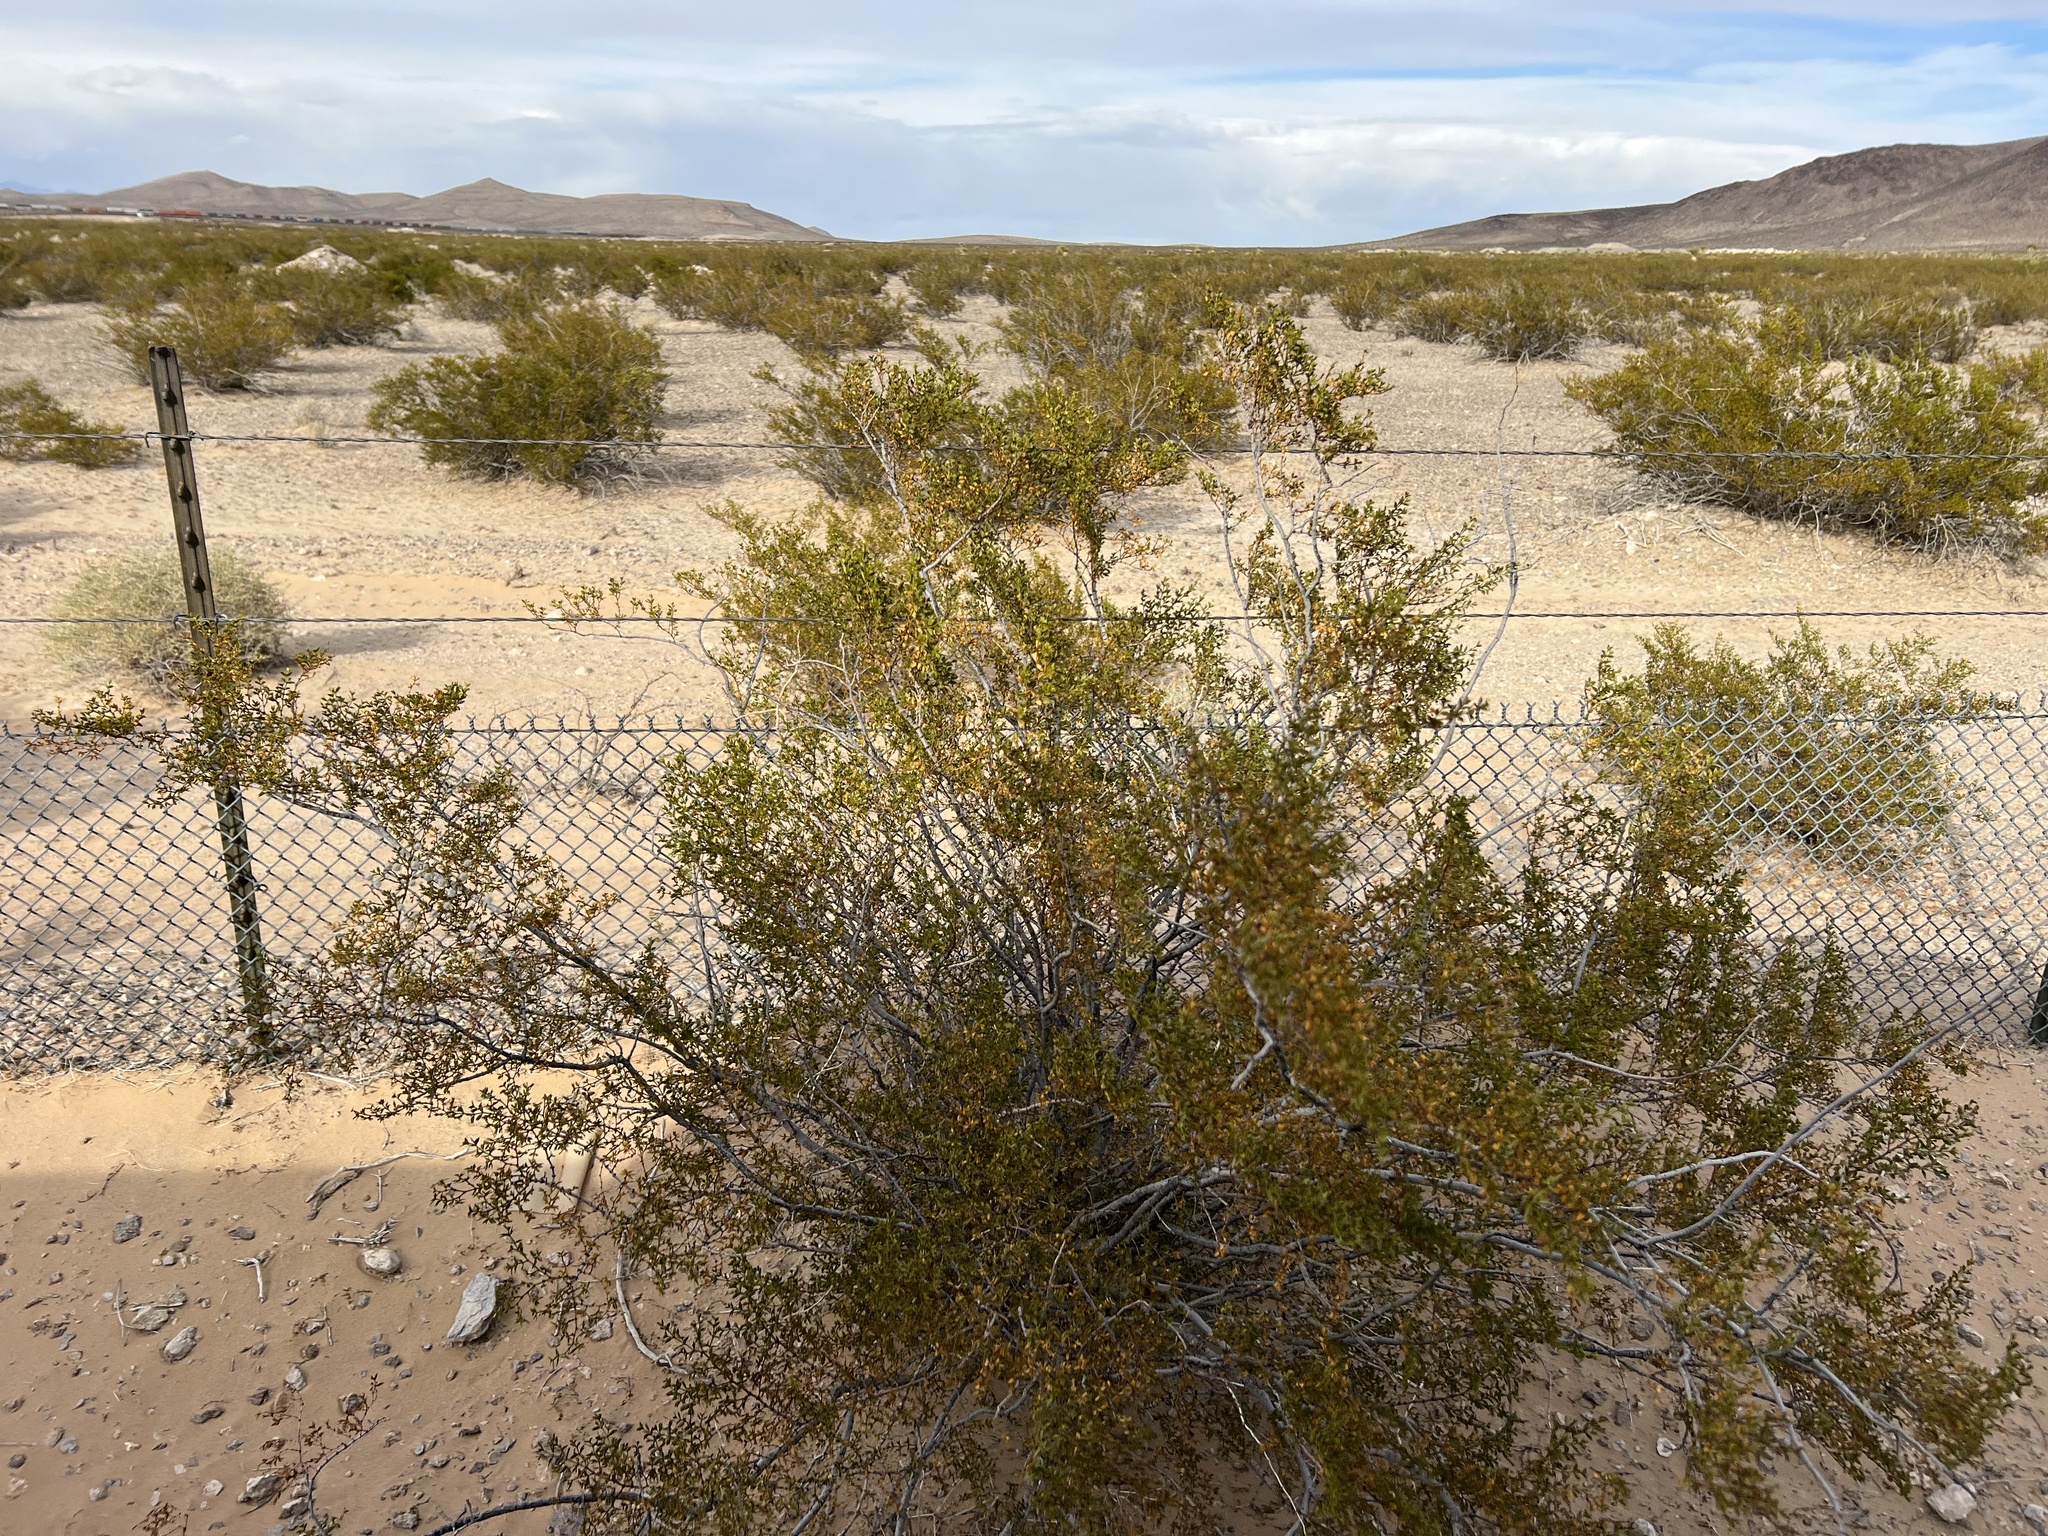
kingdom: Plantae
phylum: Tracheophyta
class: Magnoliopsida
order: Zygophyllales
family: Zygophyllaceae
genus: Larrea
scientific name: Larrea tridentata
